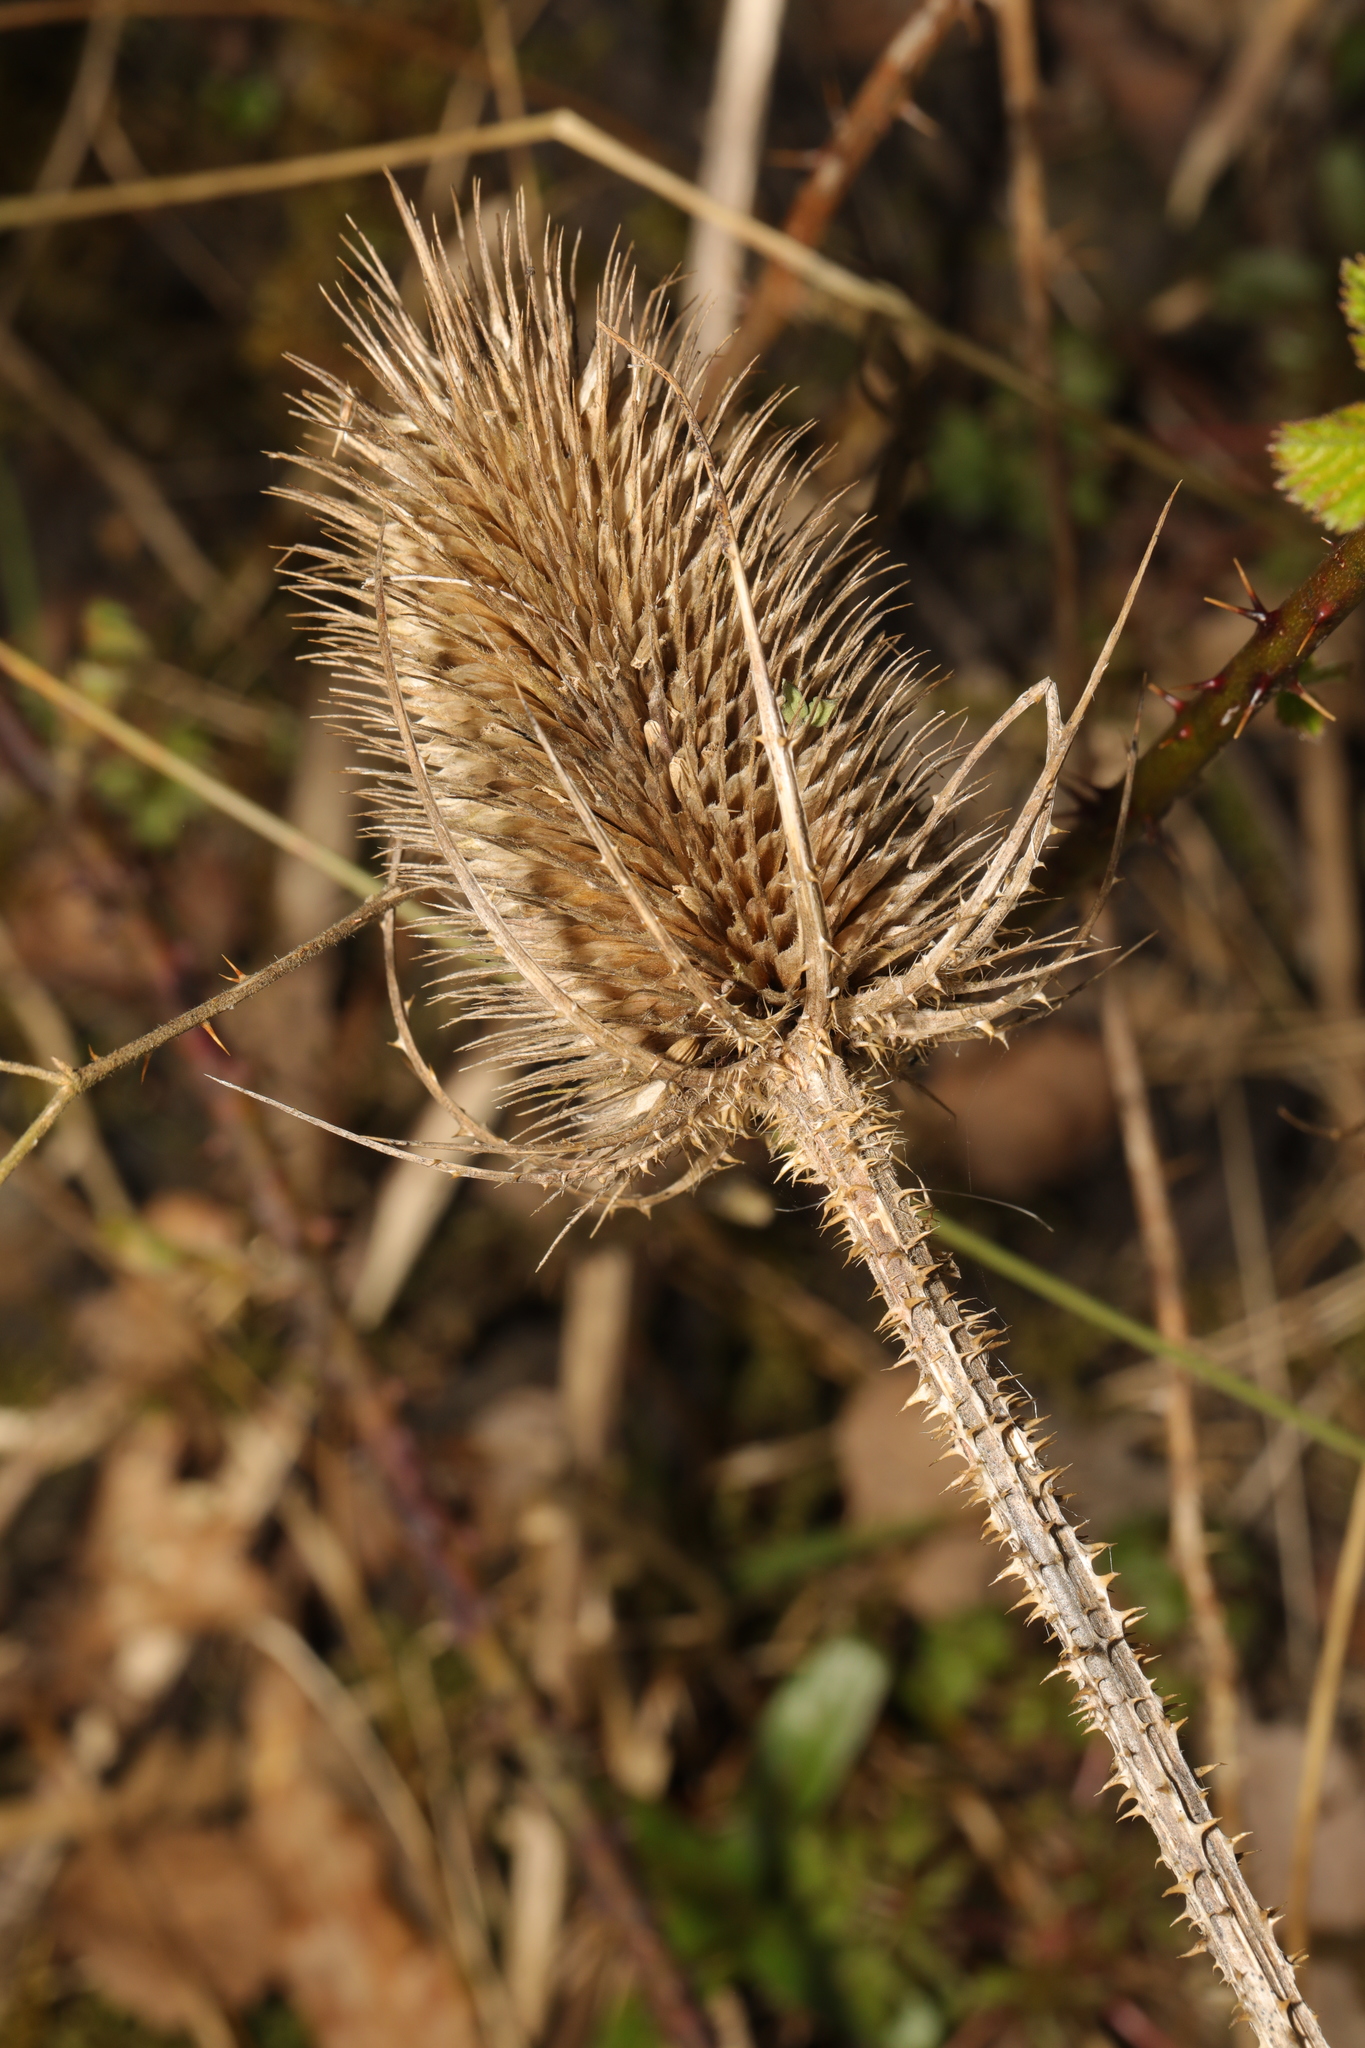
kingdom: Plantae
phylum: Tracheophyta
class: Magnoliopsida
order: Dipsacales
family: Caprifoliaceae
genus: Dipsacus
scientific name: Dipsacus fullonum
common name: Teasel
